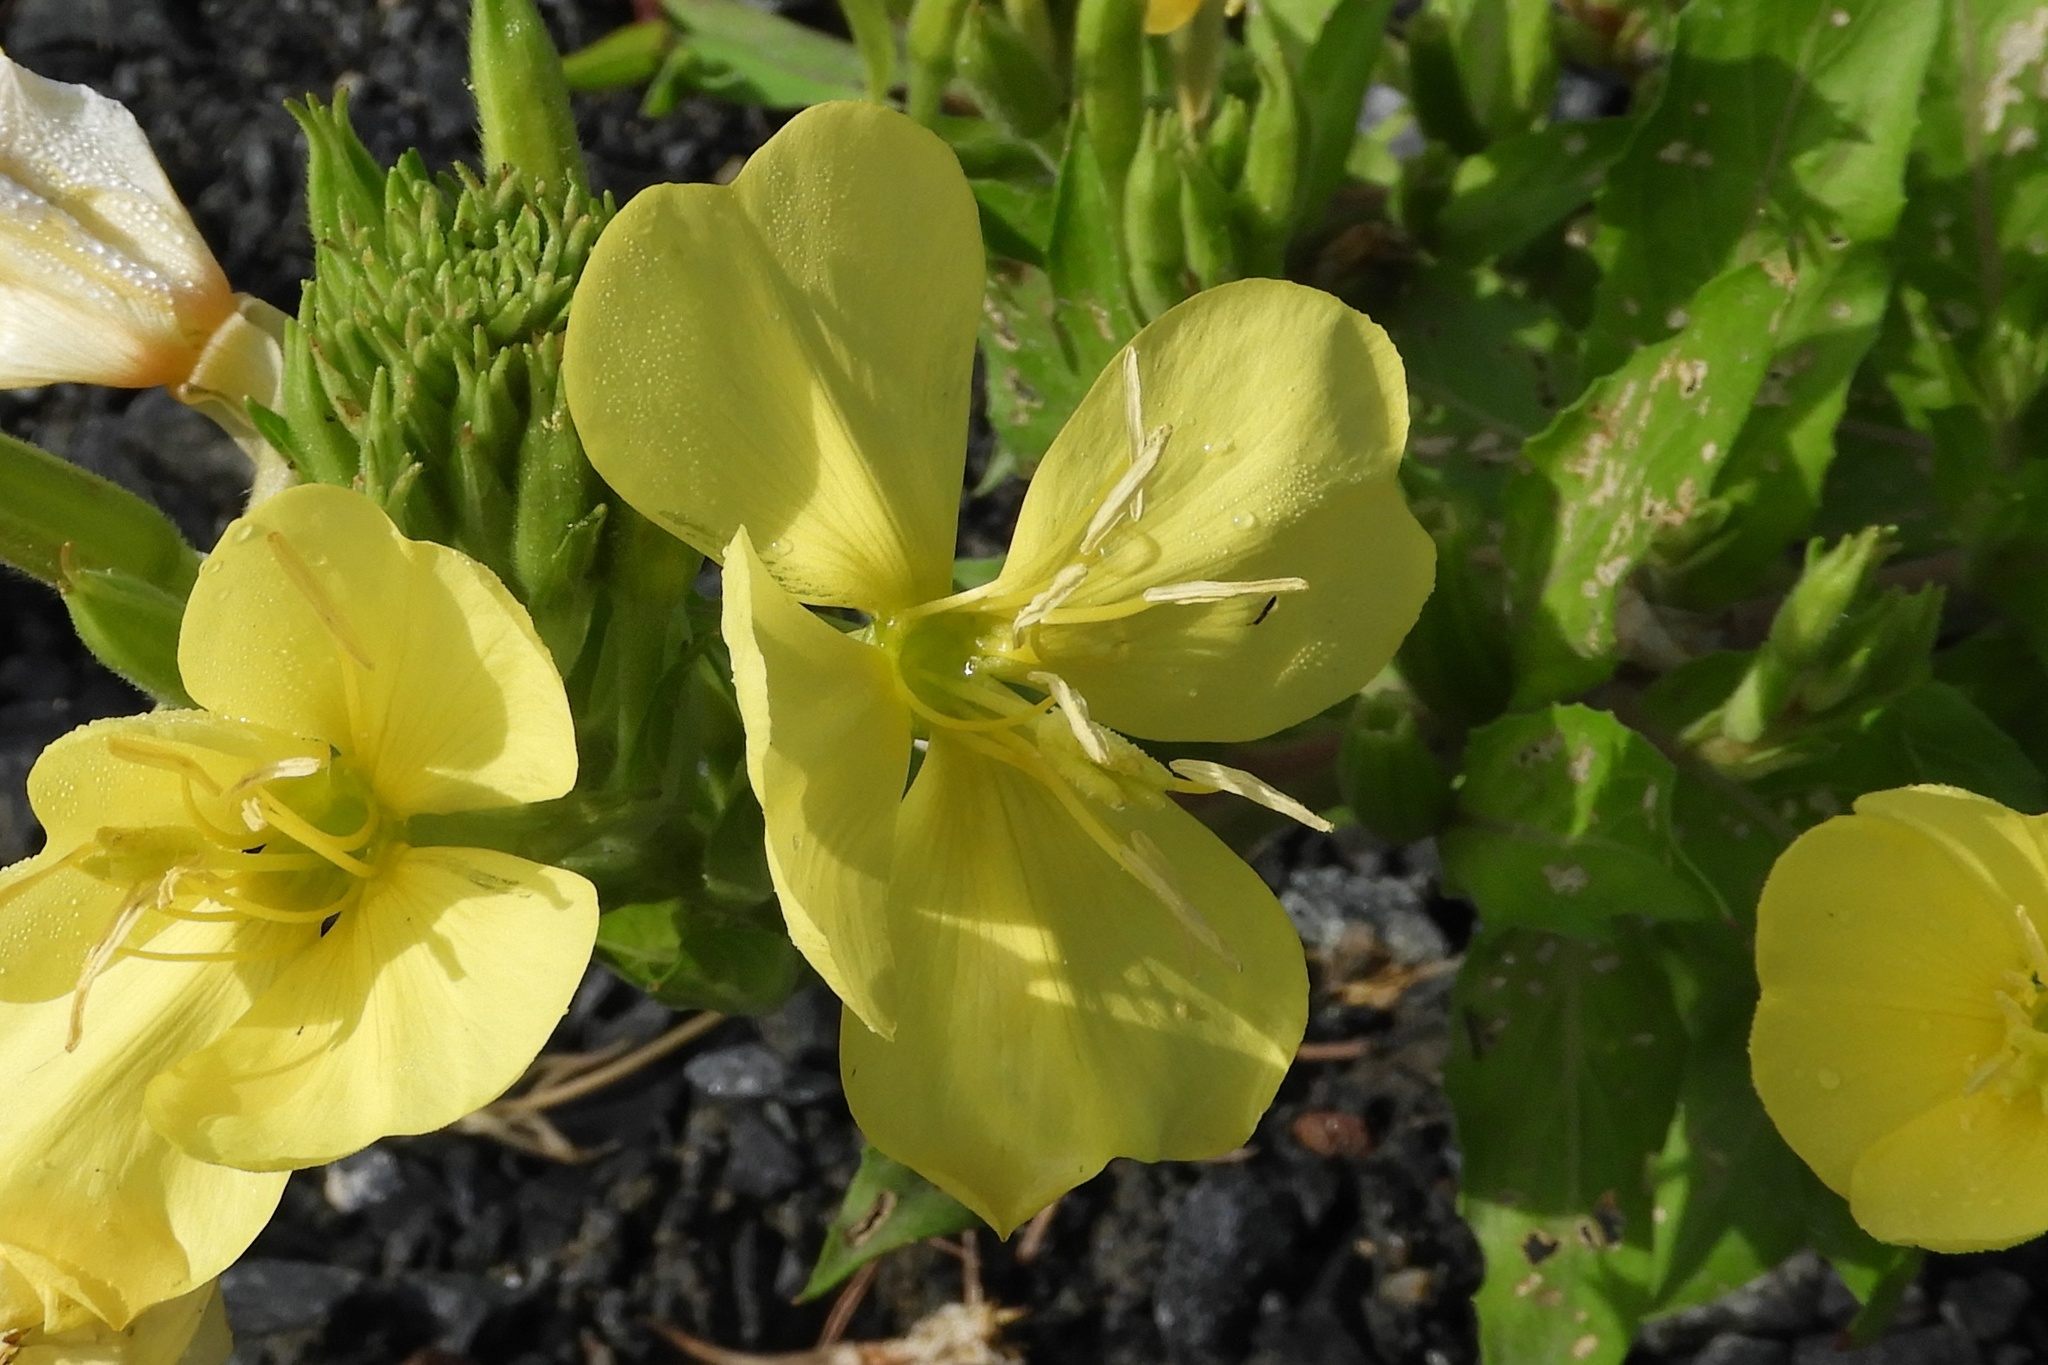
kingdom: Plantae
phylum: Tracheophyta
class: Magnoliopsida
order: Myrtales
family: Onagraceae
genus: Oenothera
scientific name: Oenothera biennis
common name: Common evening-primrose
